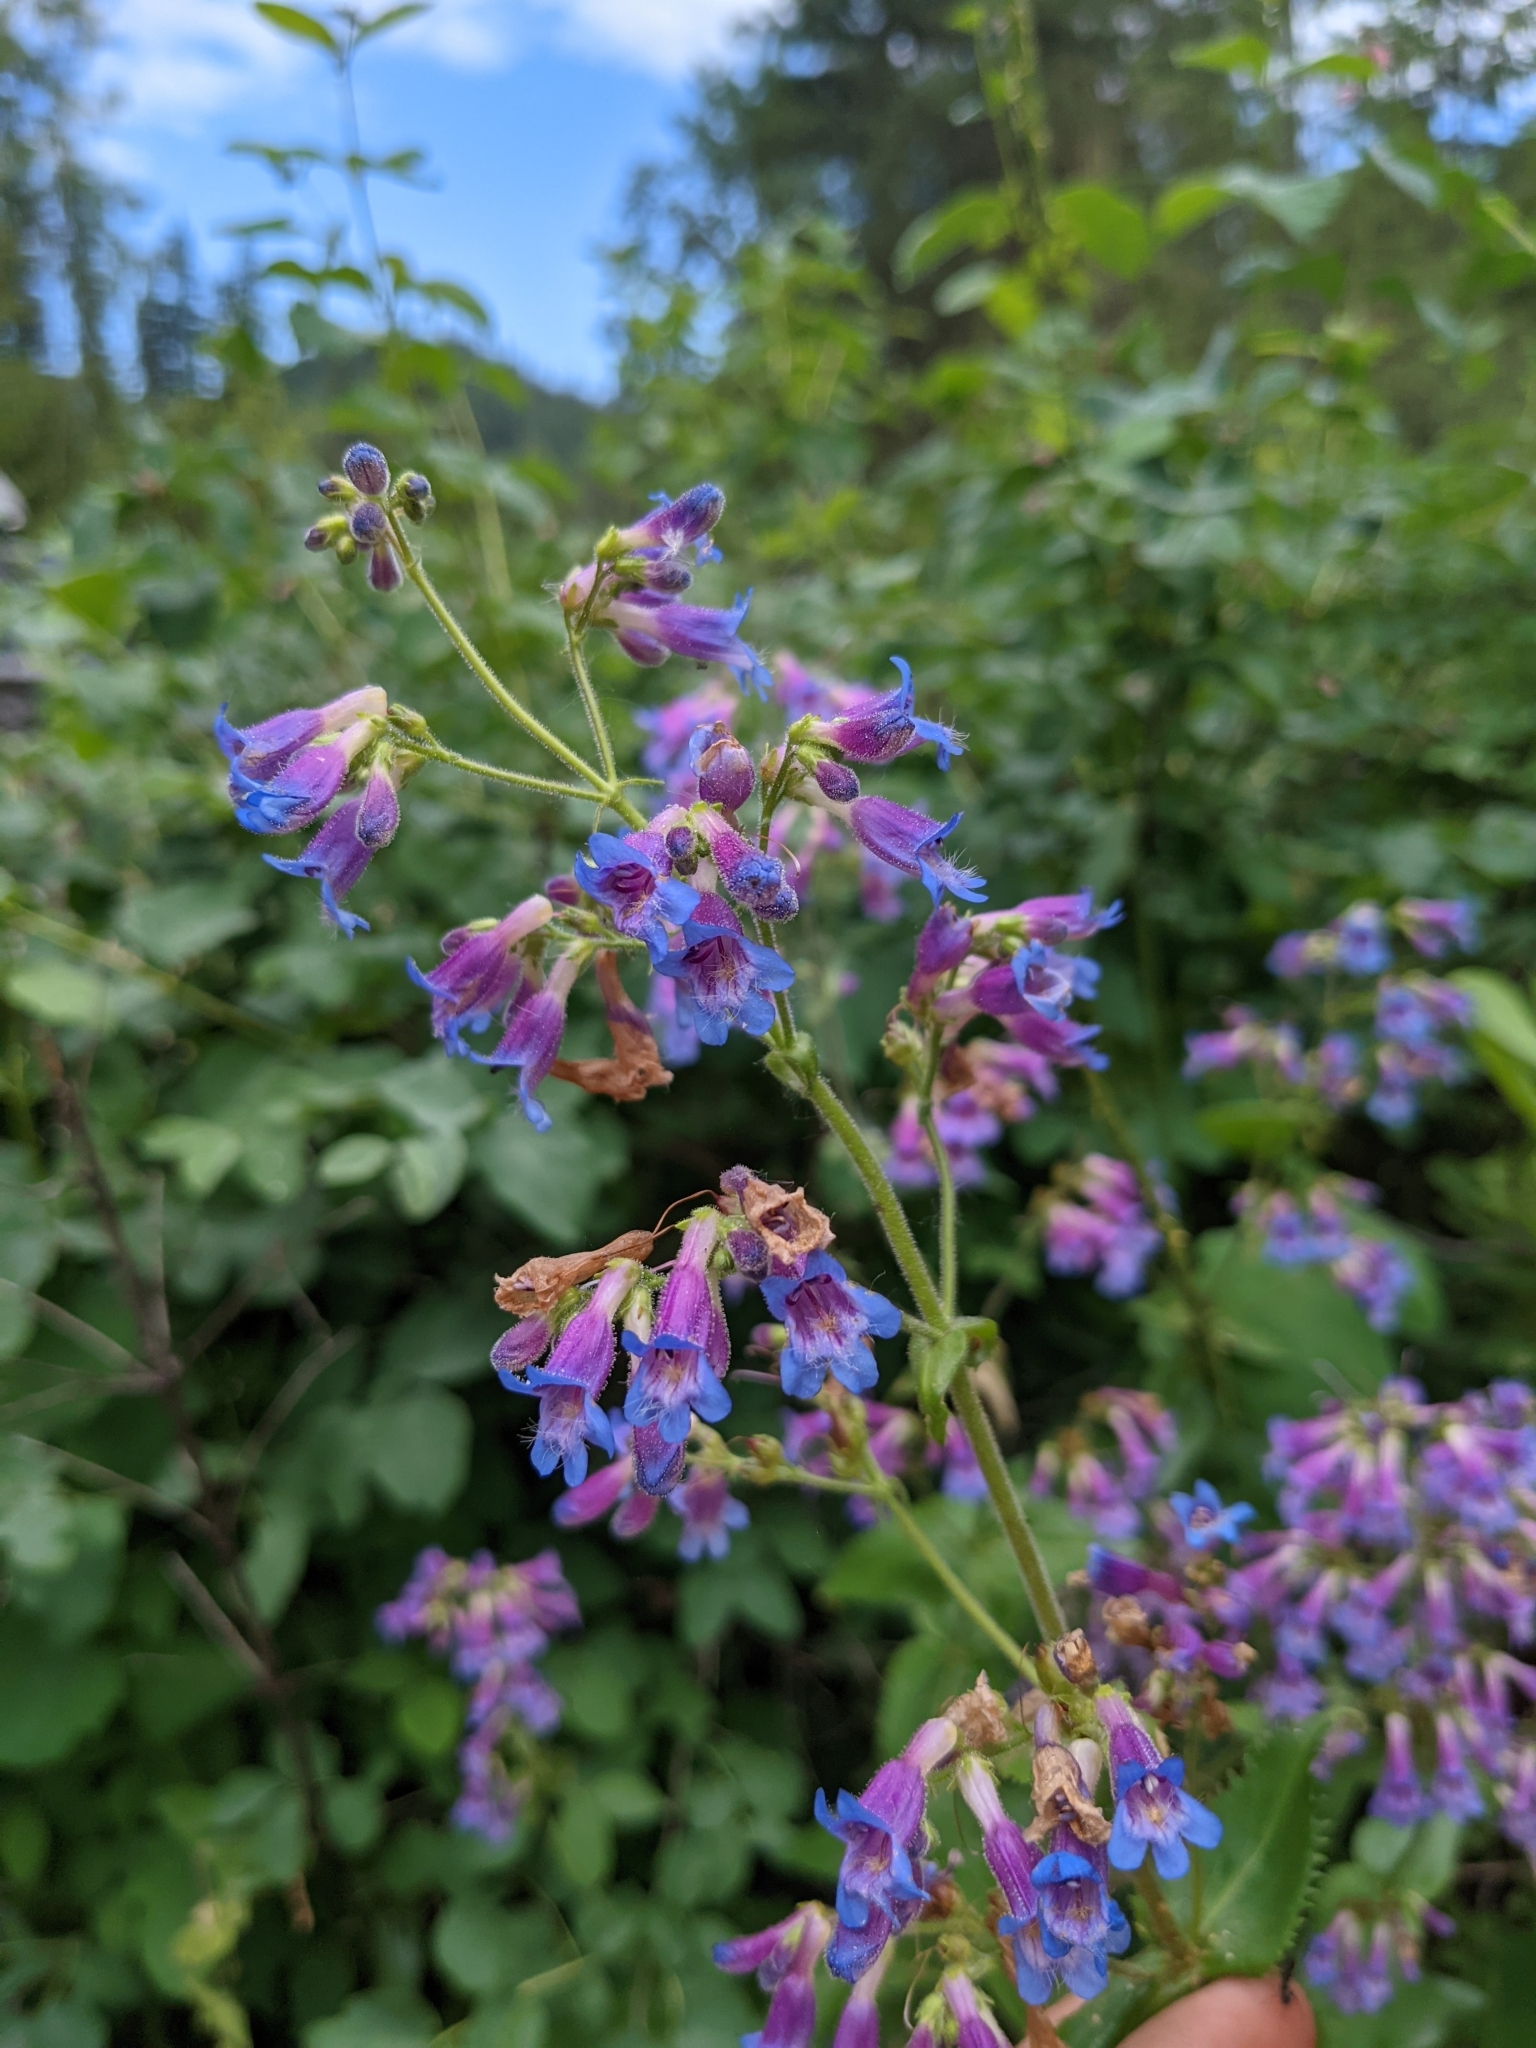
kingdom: Plantae
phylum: Tracheophyta
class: Magnoliopsida
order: Lamiales
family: Plantaginaceae
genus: Penstemon
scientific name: Penstemon wilcoxii
